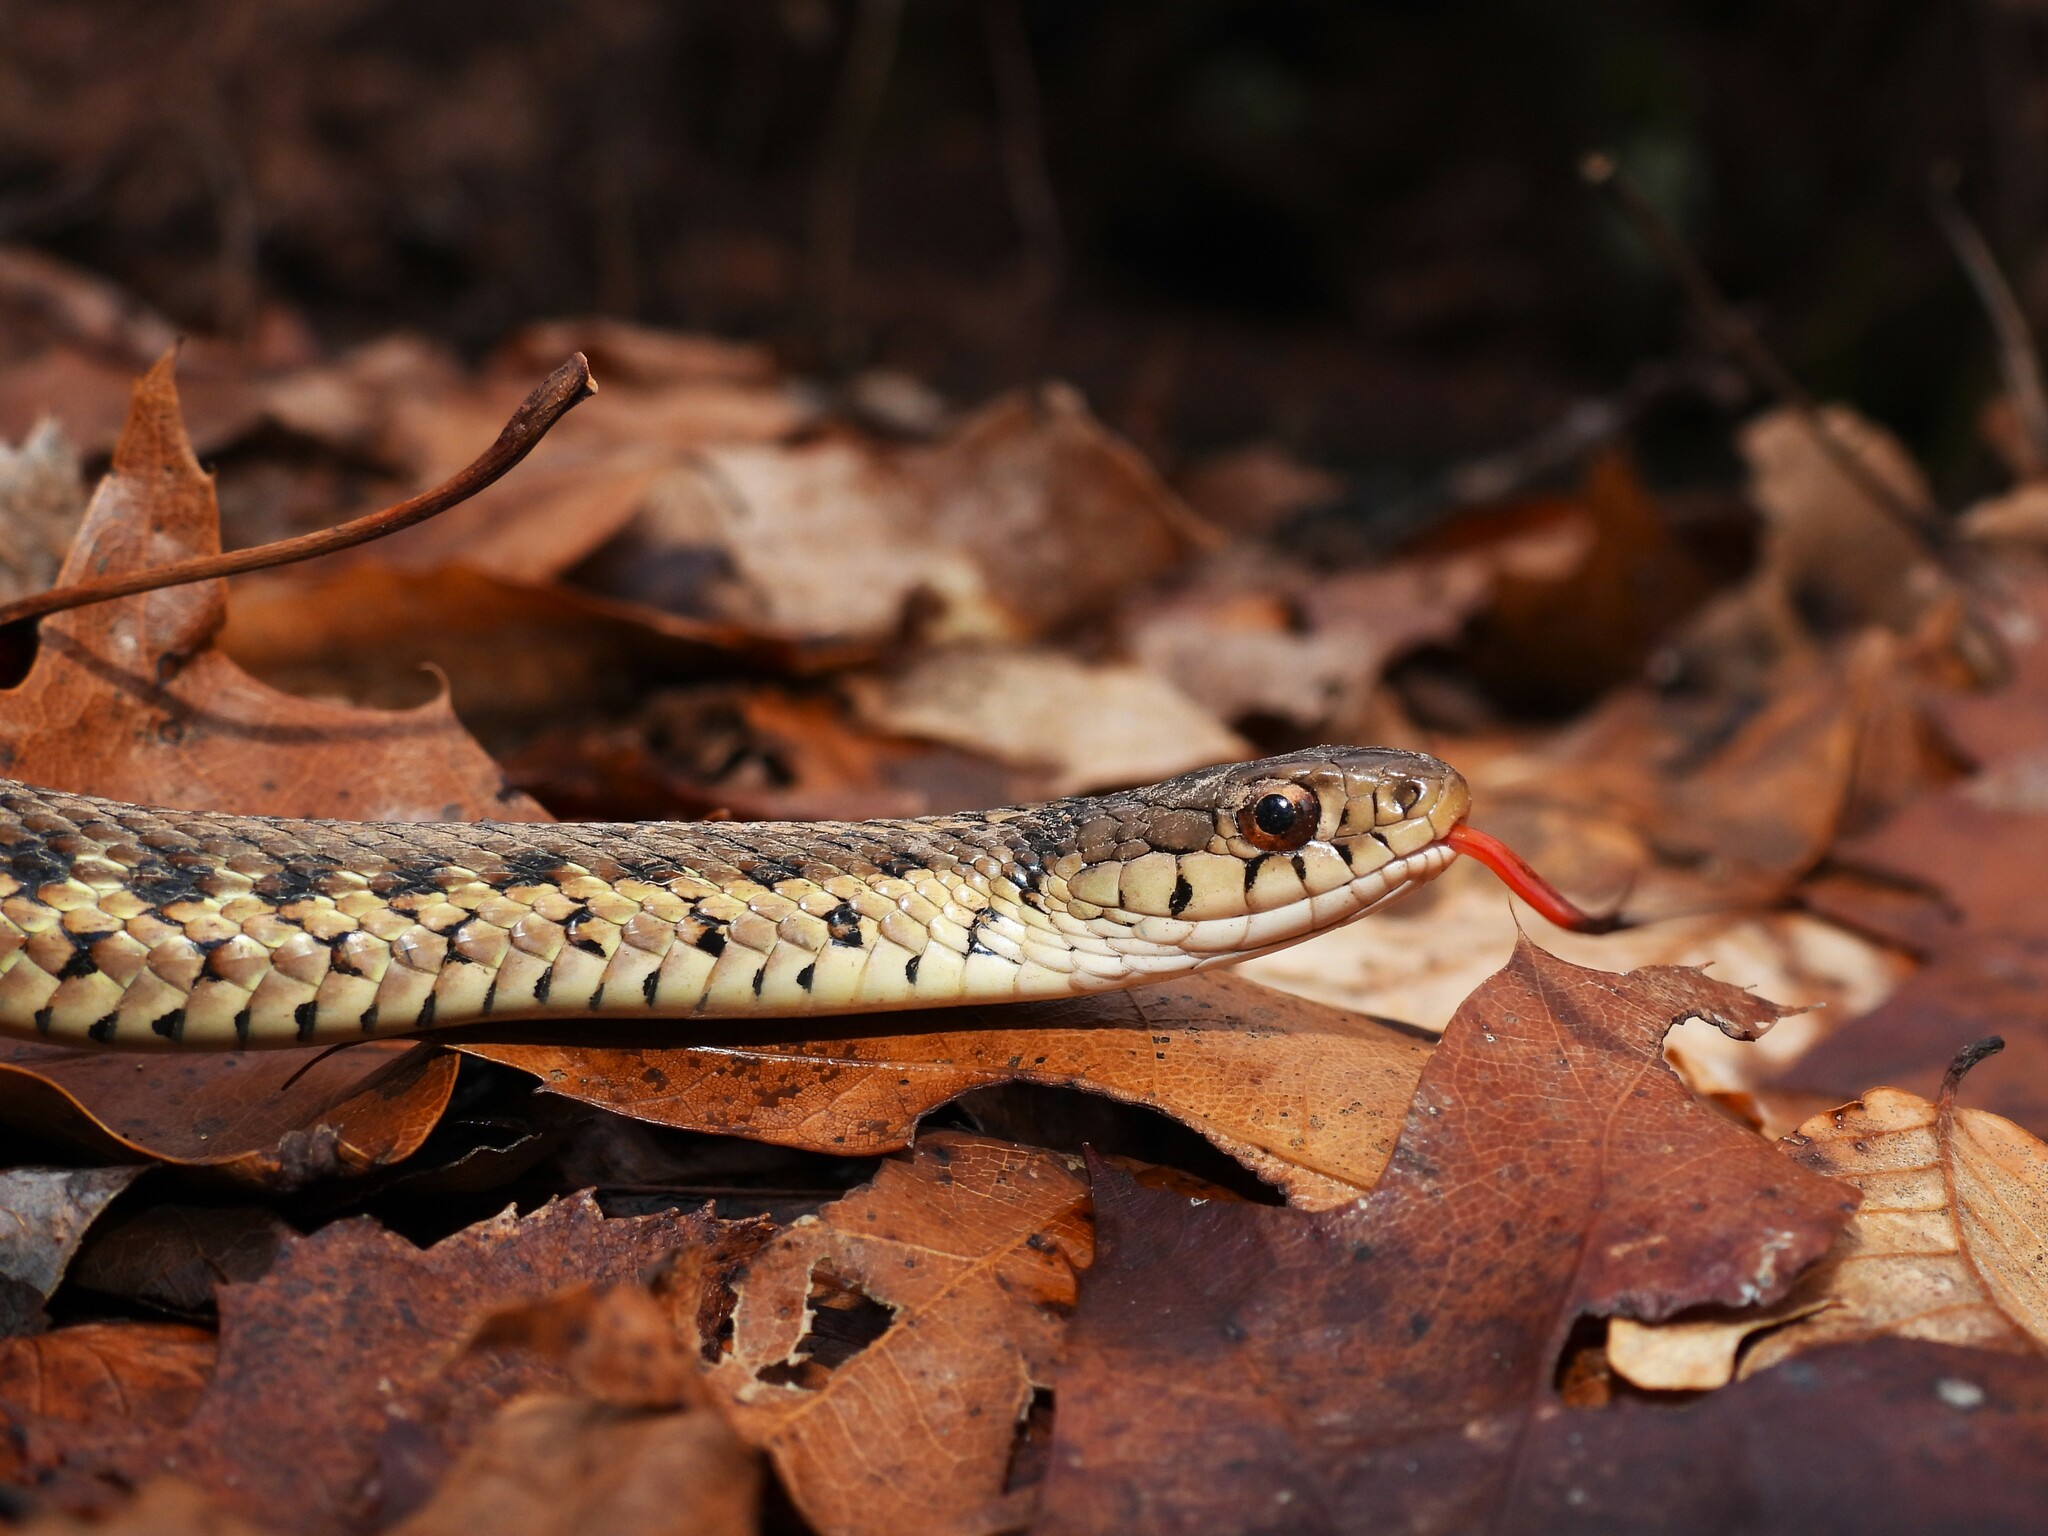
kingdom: Animalia
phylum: Chordata
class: Squamata
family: Colubridae
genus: Thamnophis
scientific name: Thamnophis sirtalis
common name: Common garter snake
